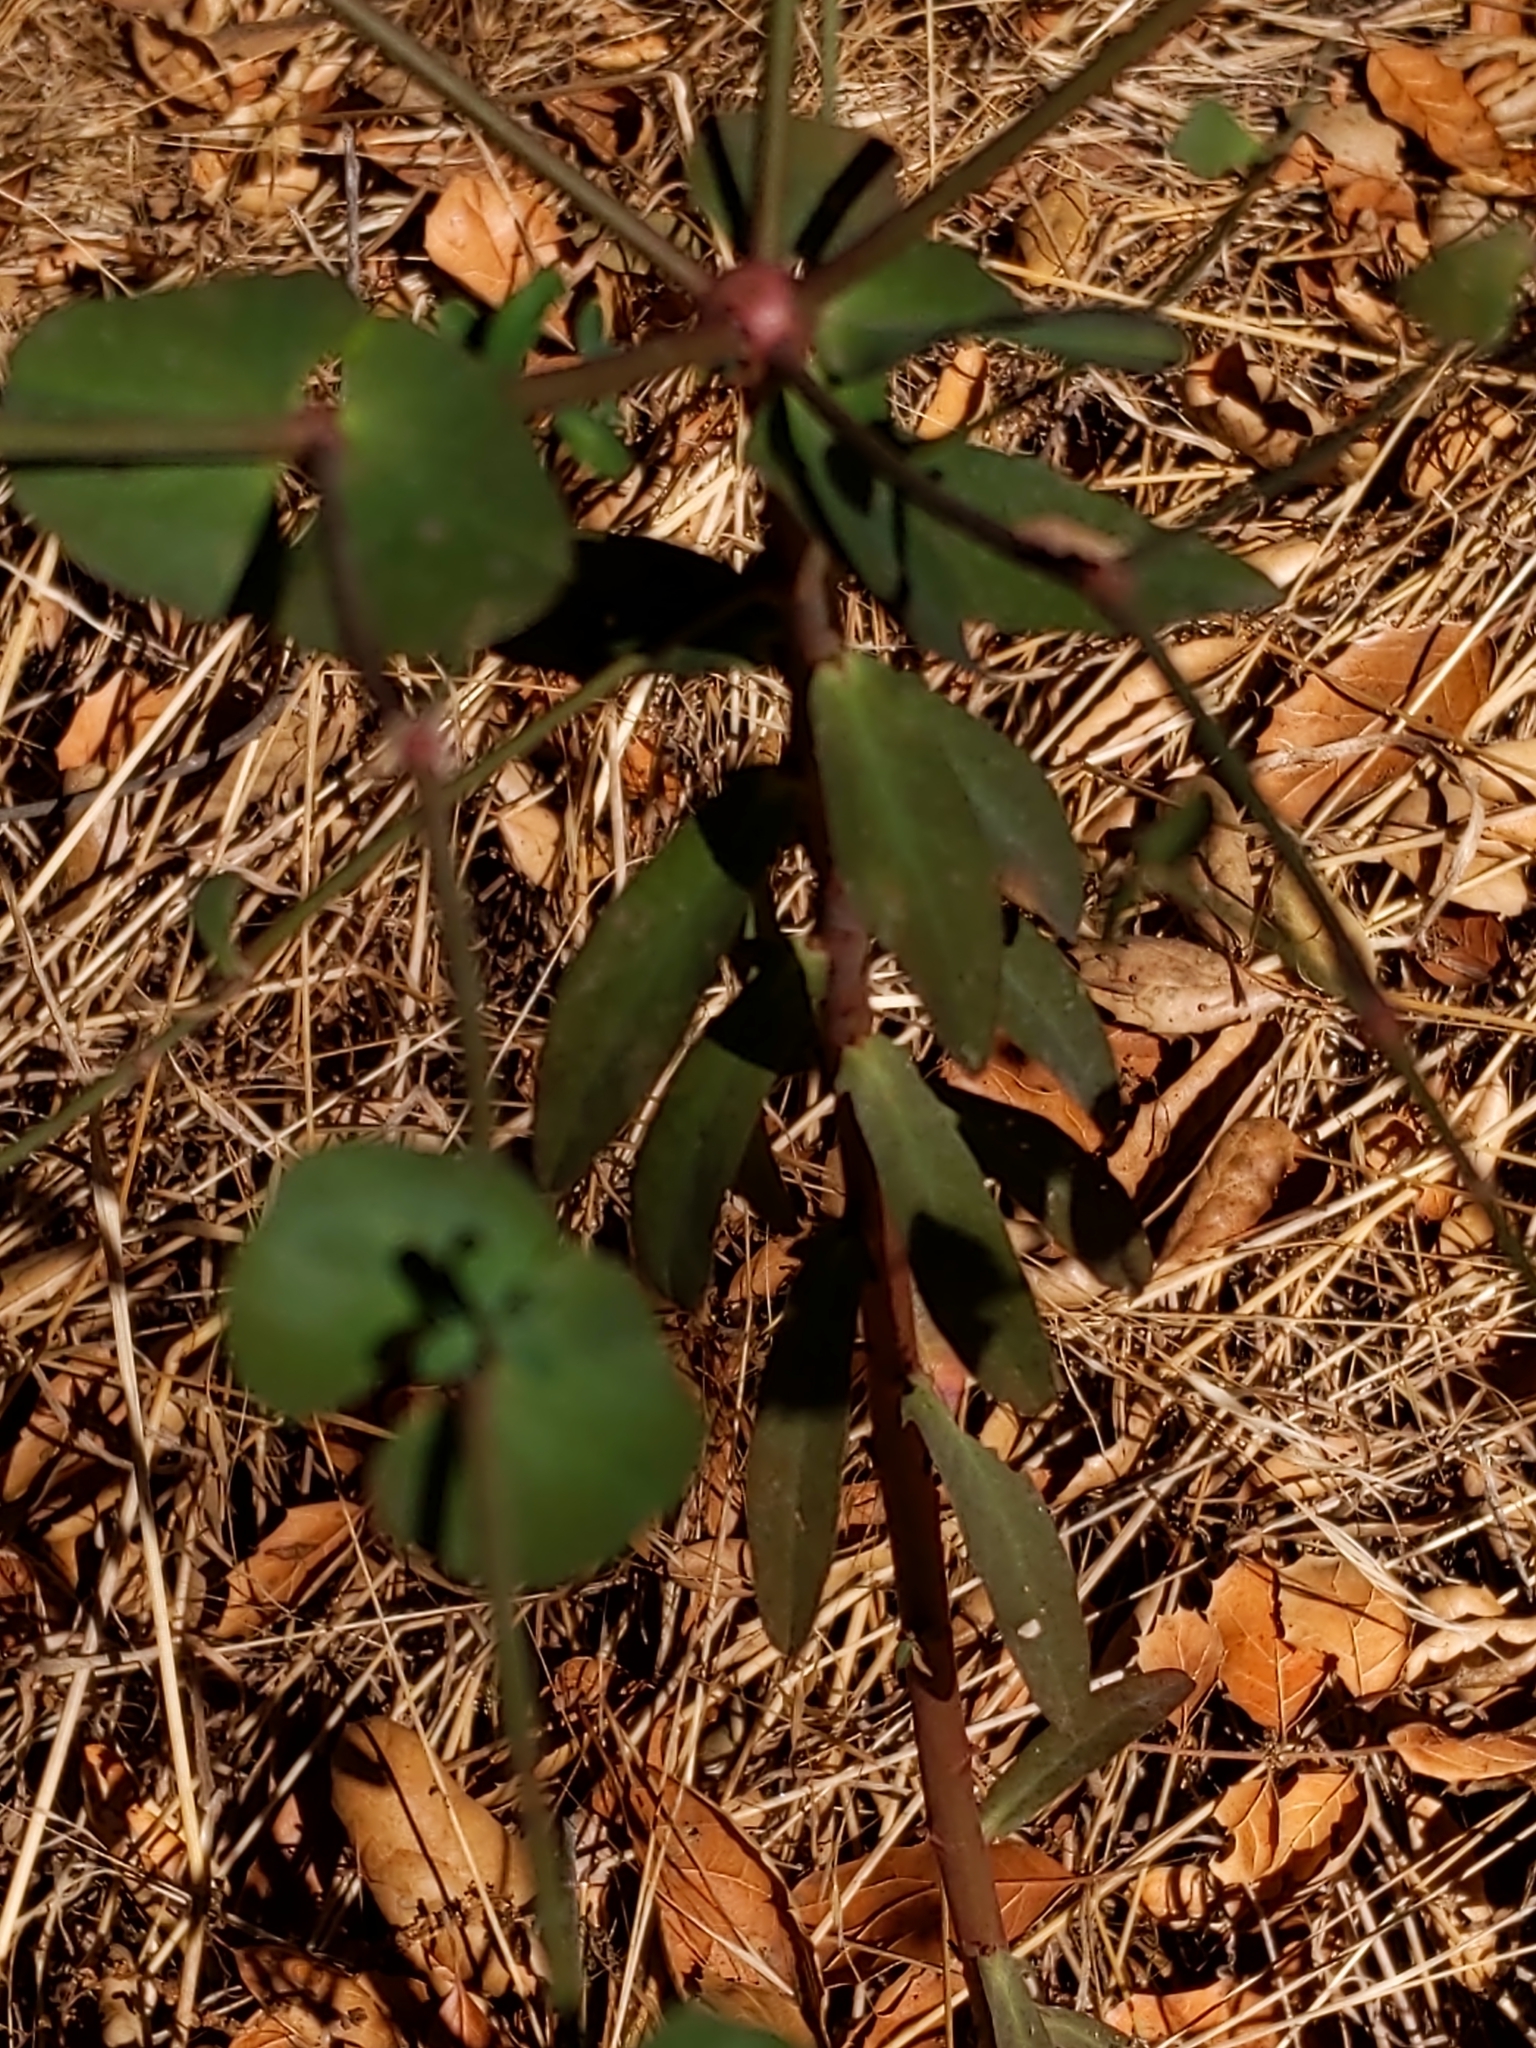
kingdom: Plantae
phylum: Tracheophyta
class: Magnoliopsida
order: Malpighiales
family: Euphorbiaceae
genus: Euphorbia
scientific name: Euphorbia terracina
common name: Geraldton carnation weed
